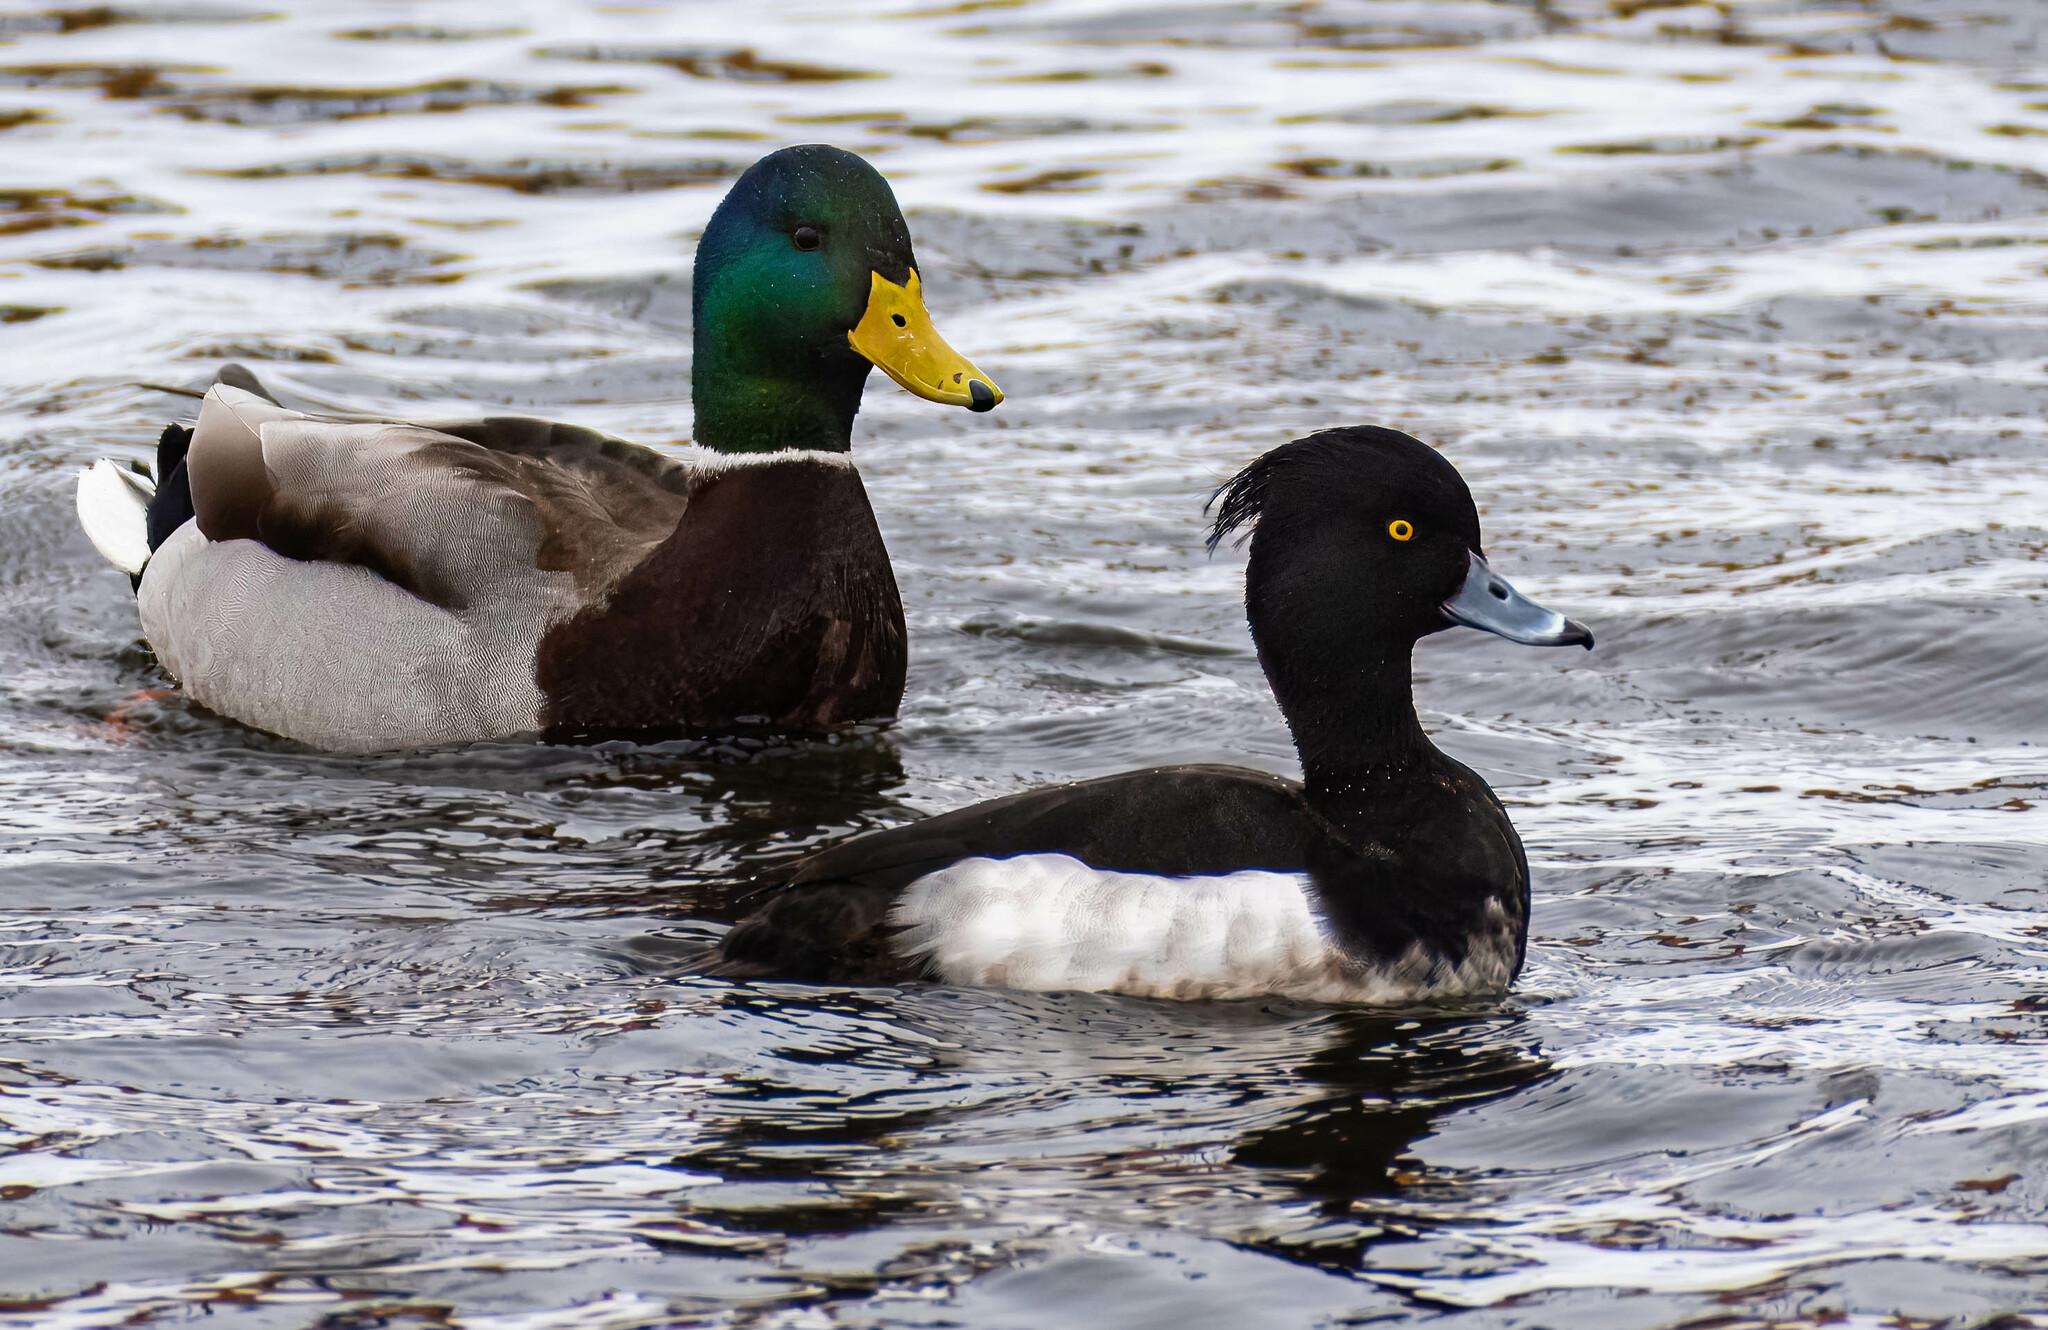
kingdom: Animalia
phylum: Chordata
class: Aves
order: Anseriformes
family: Anatidae
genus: Anas
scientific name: Anas platyrhynchos
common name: Mallard
